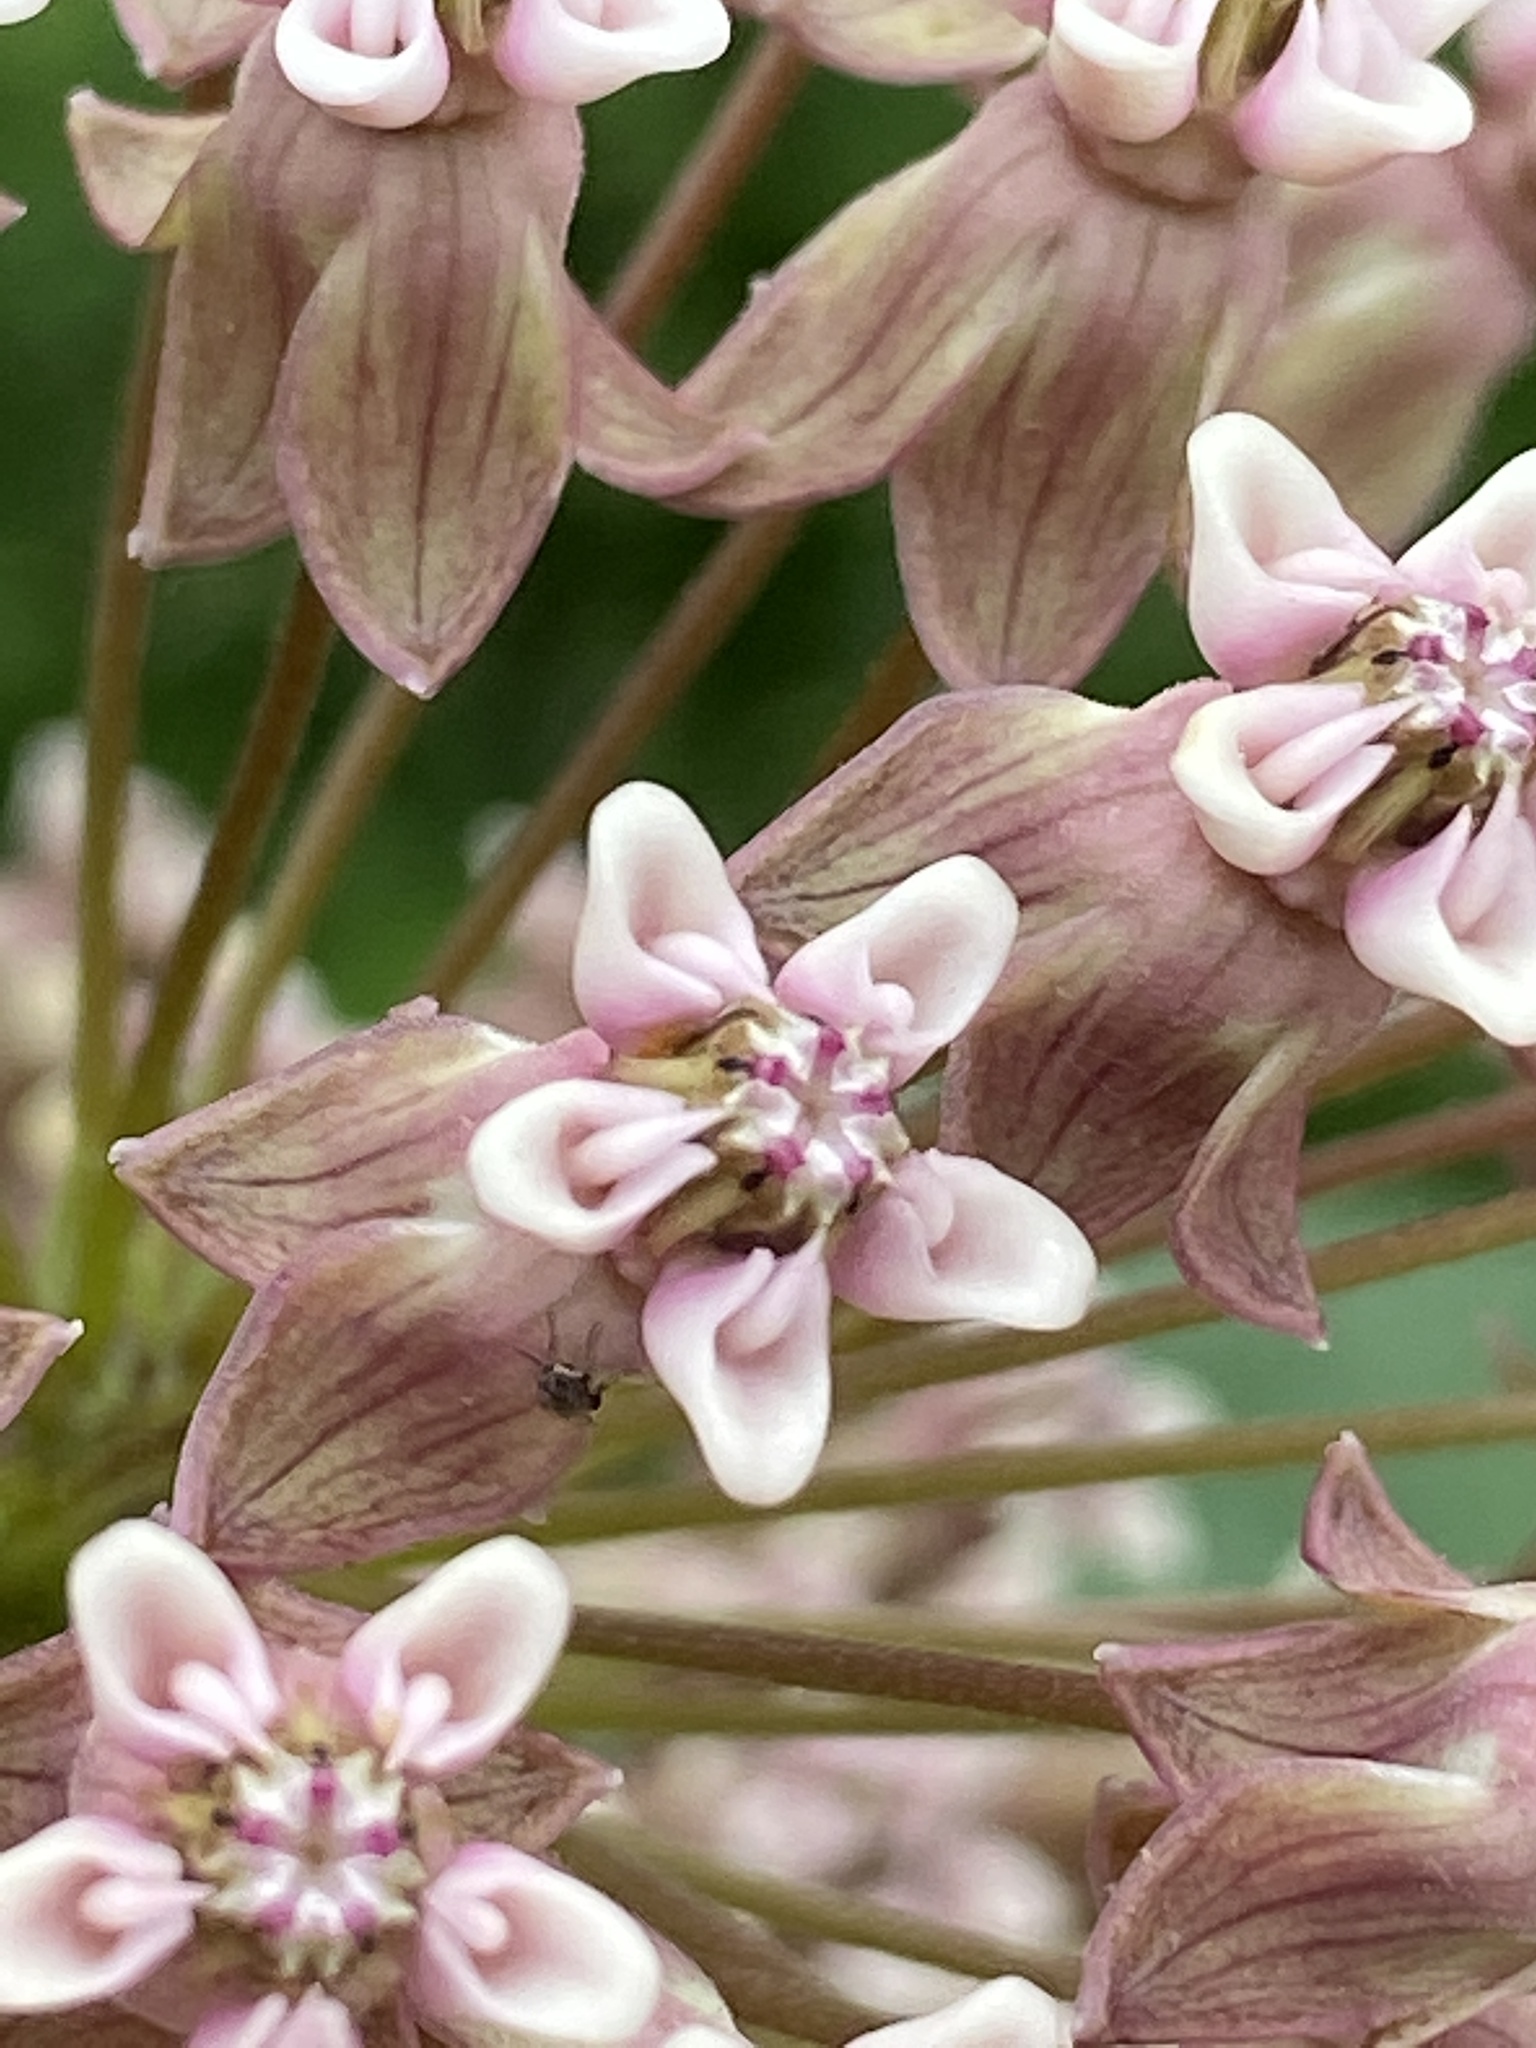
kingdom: Plantae
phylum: Tracheophyta
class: Magnoliopsida
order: Gentianales
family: Apocynaceae
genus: Asclepias
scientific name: Asclepias syriaca
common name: Common milkweed
